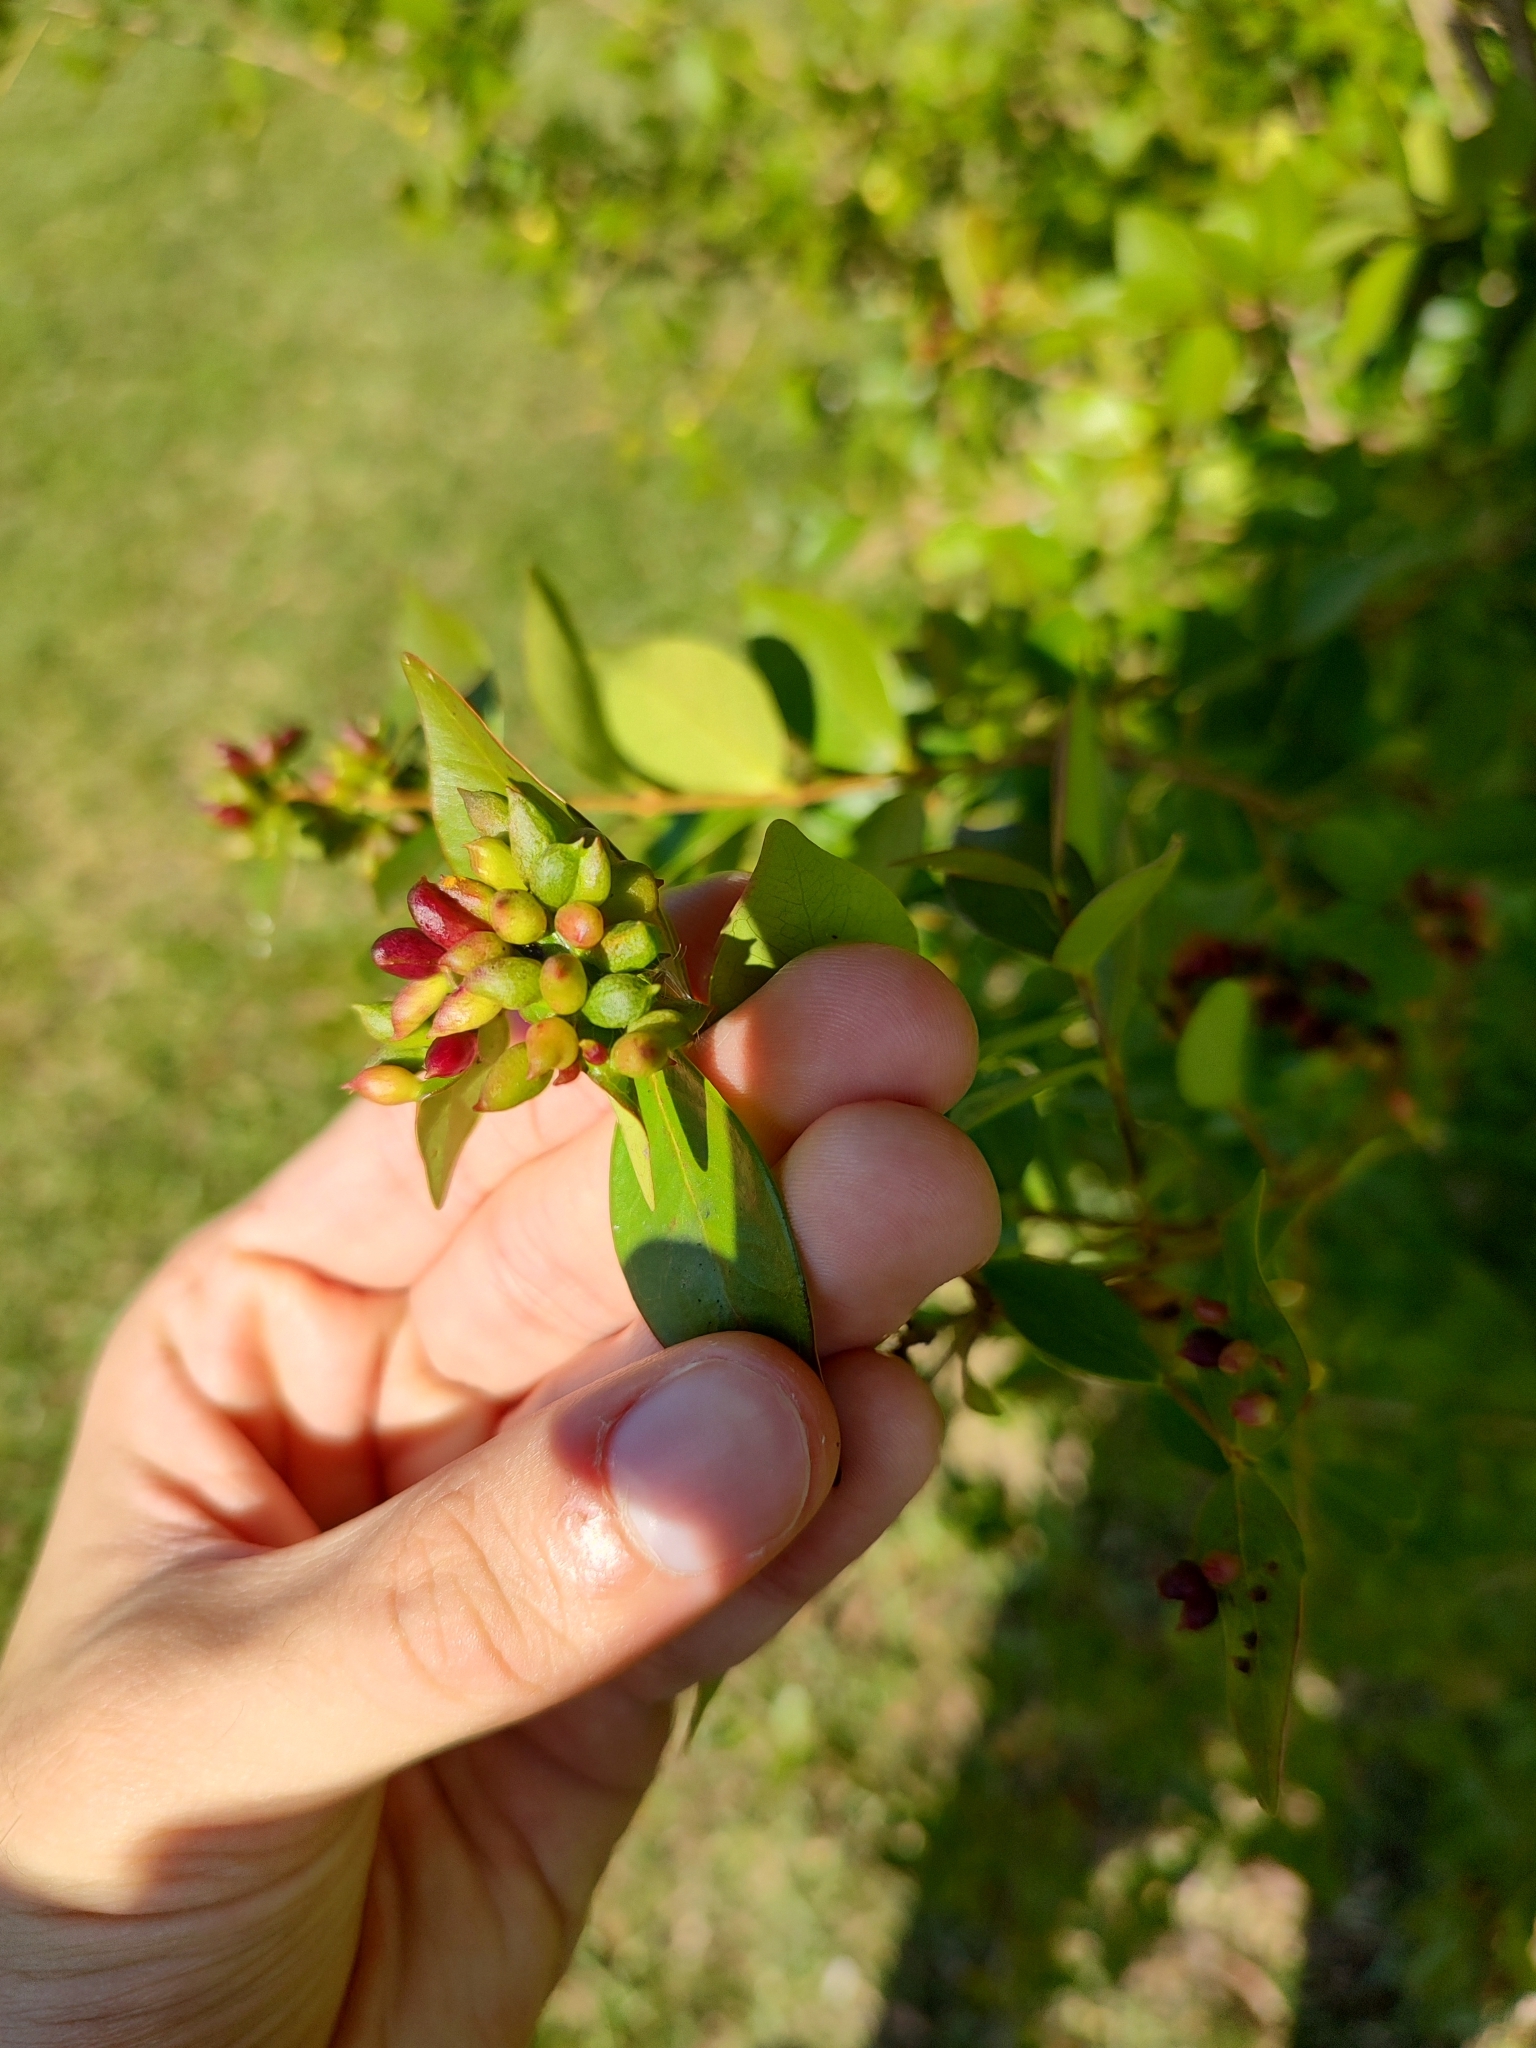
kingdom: Animalia
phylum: Arthropoda
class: Insecta
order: Diptera
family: Cecidomyiidae
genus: Clinodiplosis
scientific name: Clinodiplosis profusa
